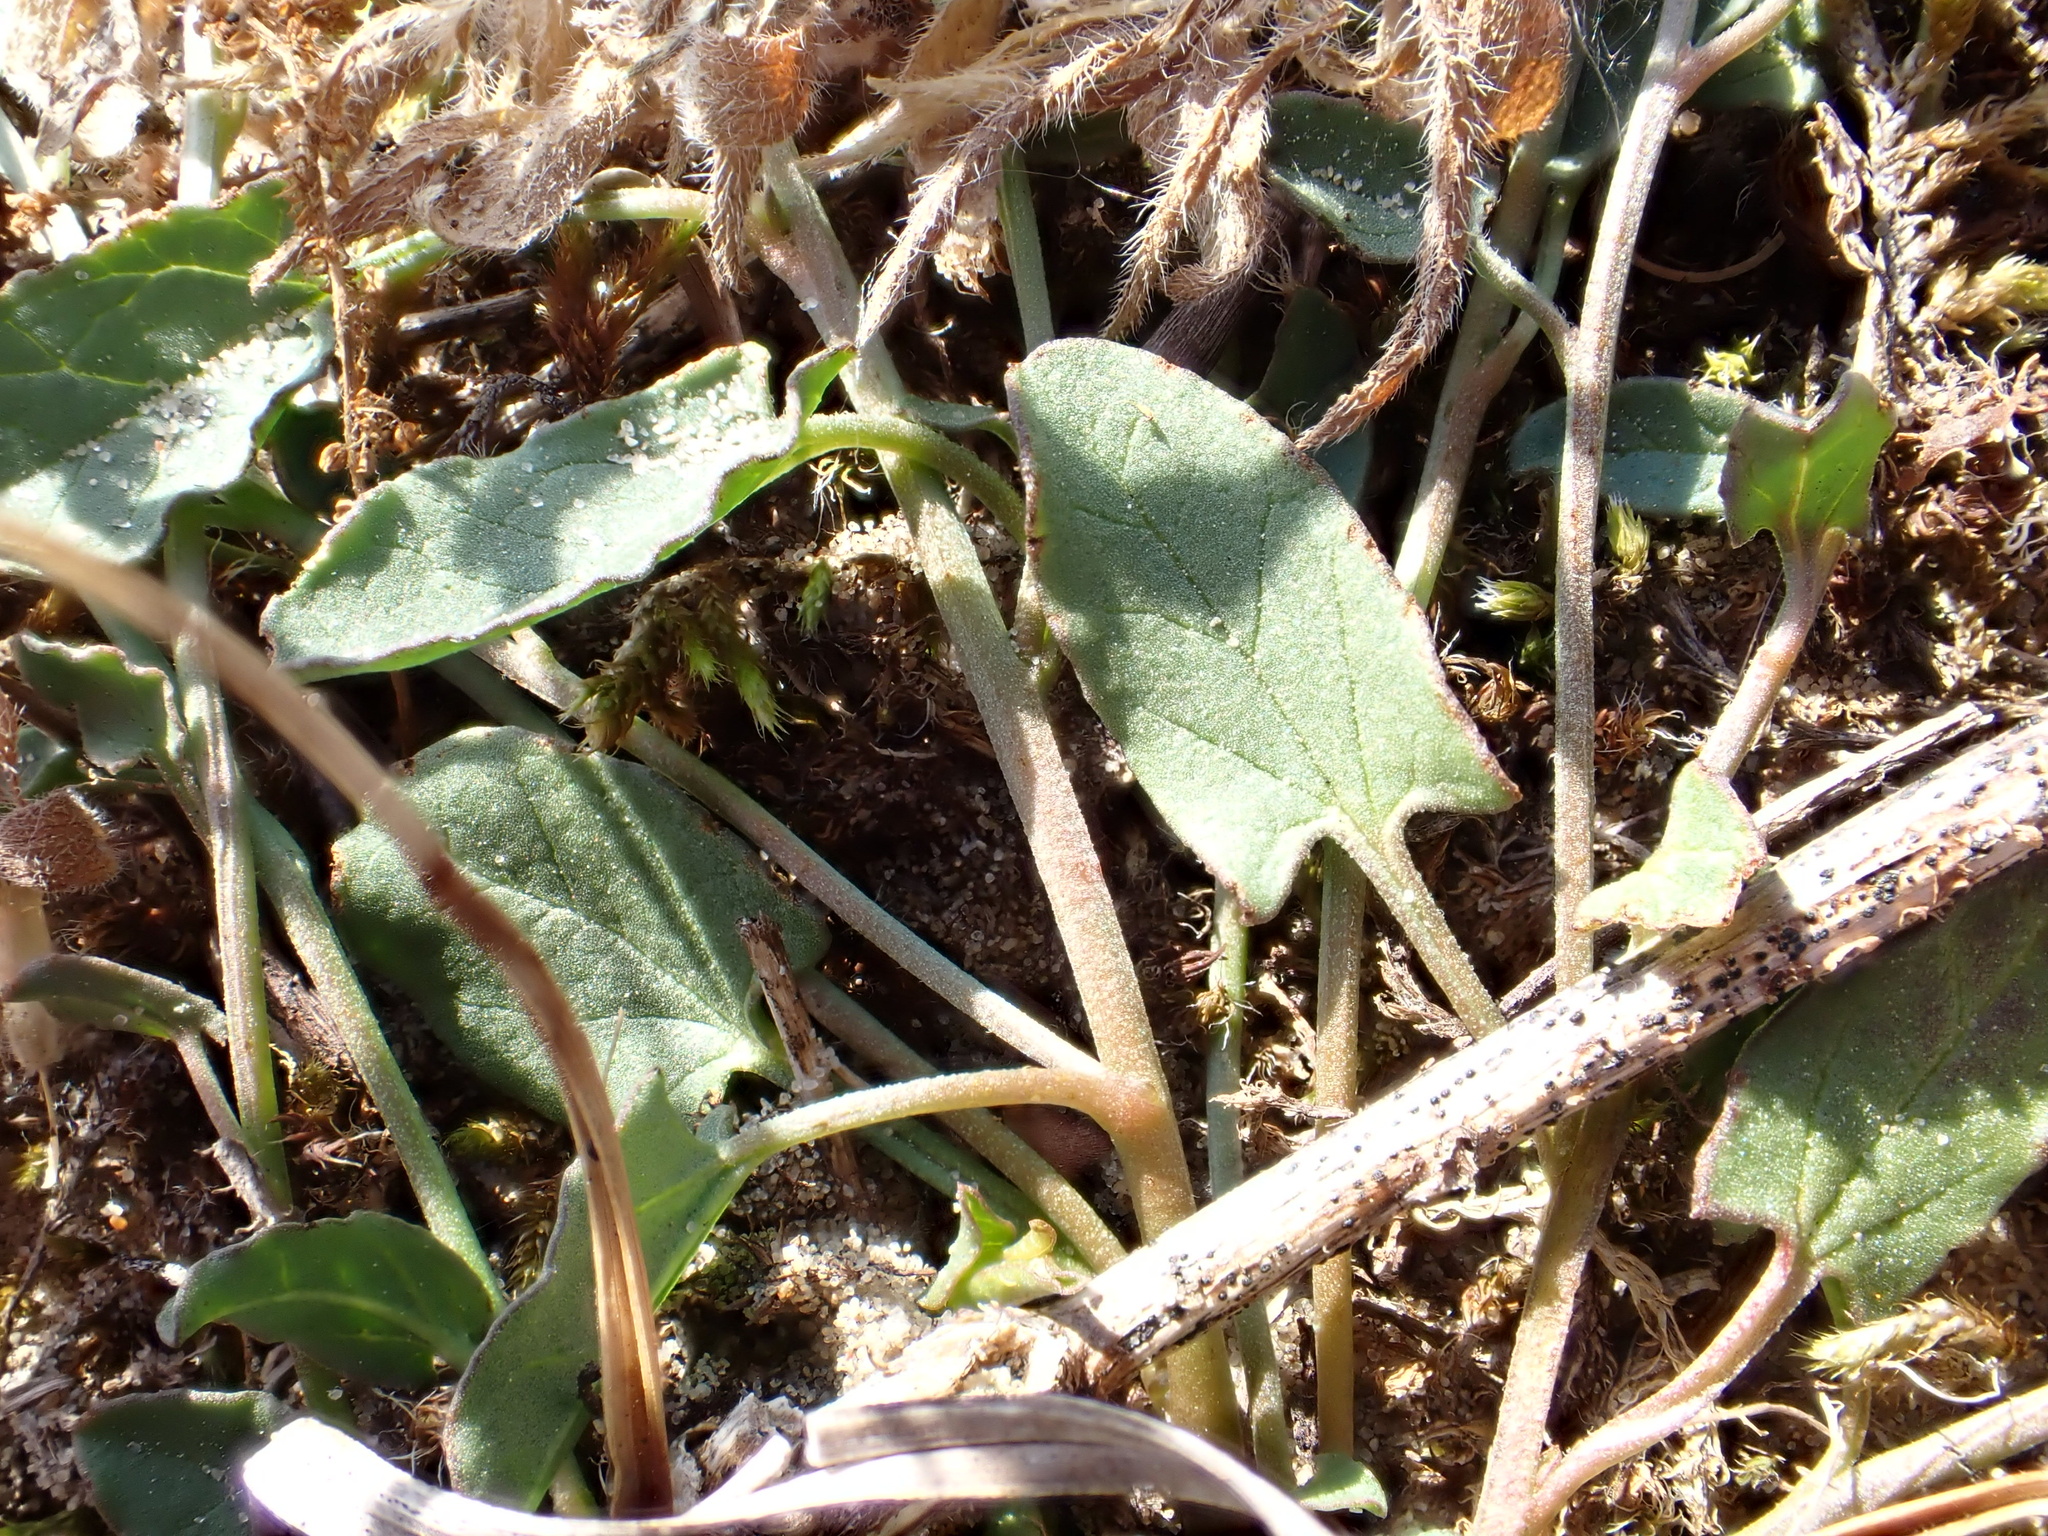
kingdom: Plantae
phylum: Tracheophyta
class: Magnoliopsida
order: Solanales
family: Convolvulaceae
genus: Convolvulus
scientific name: Convolvulus arvensis
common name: Field bindweed
